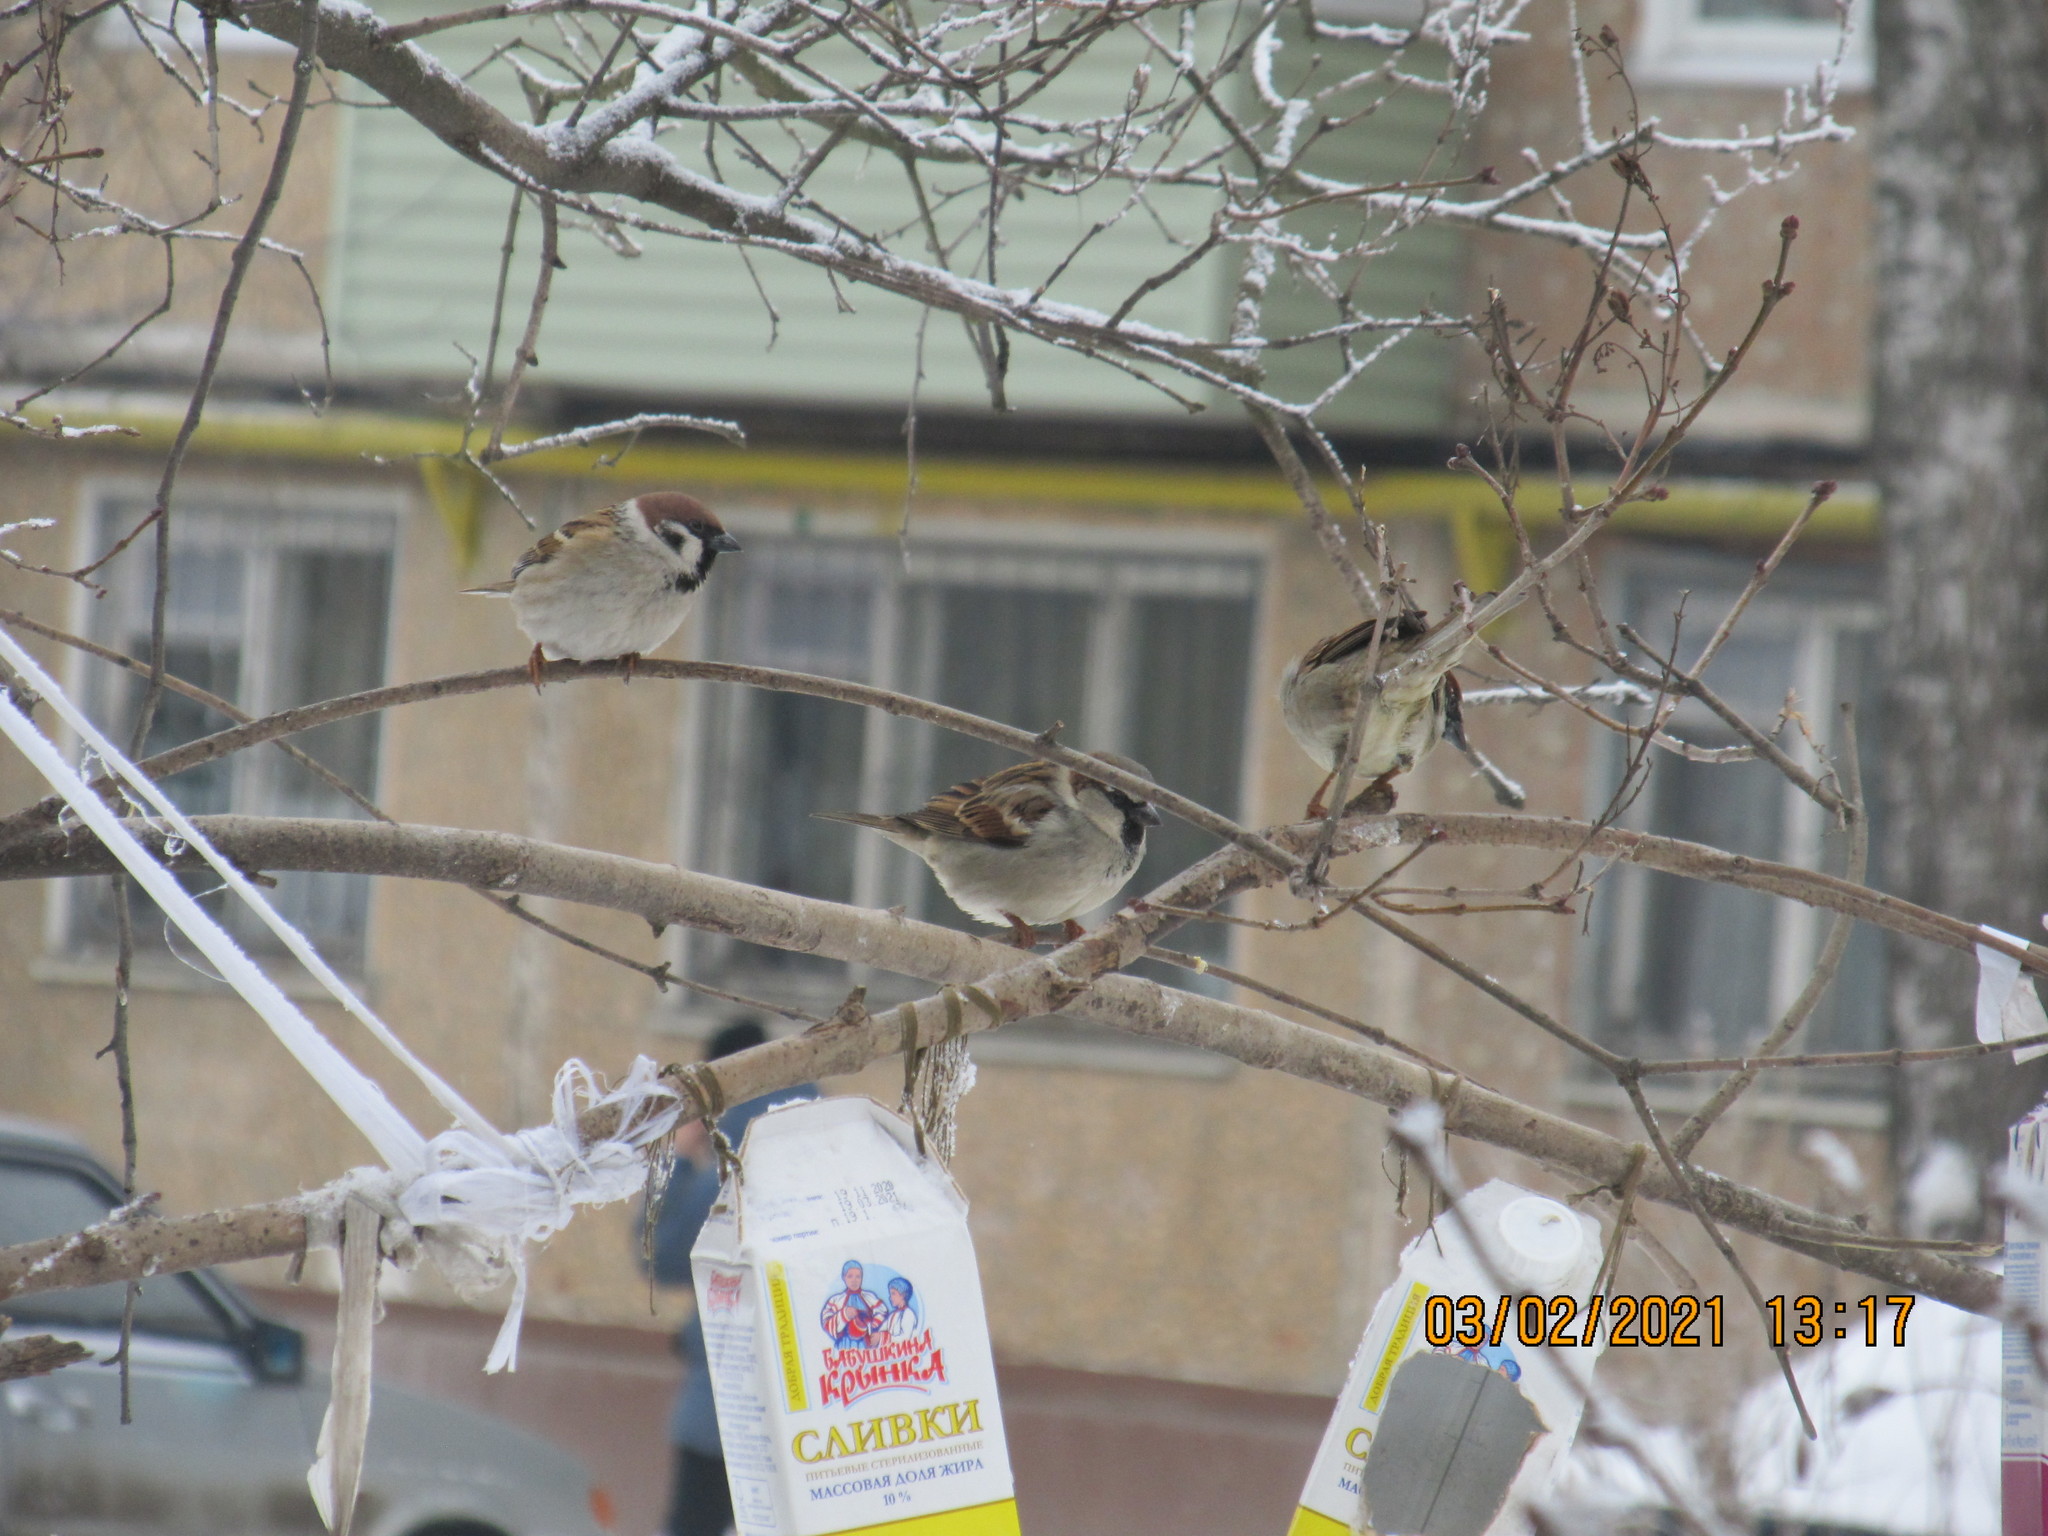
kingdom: Animalia
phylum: Chordata
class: Aves
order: Passeriformes
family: Passeridae
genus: Passer
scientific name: Passer montanus
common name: Eurasian tree sparrow
